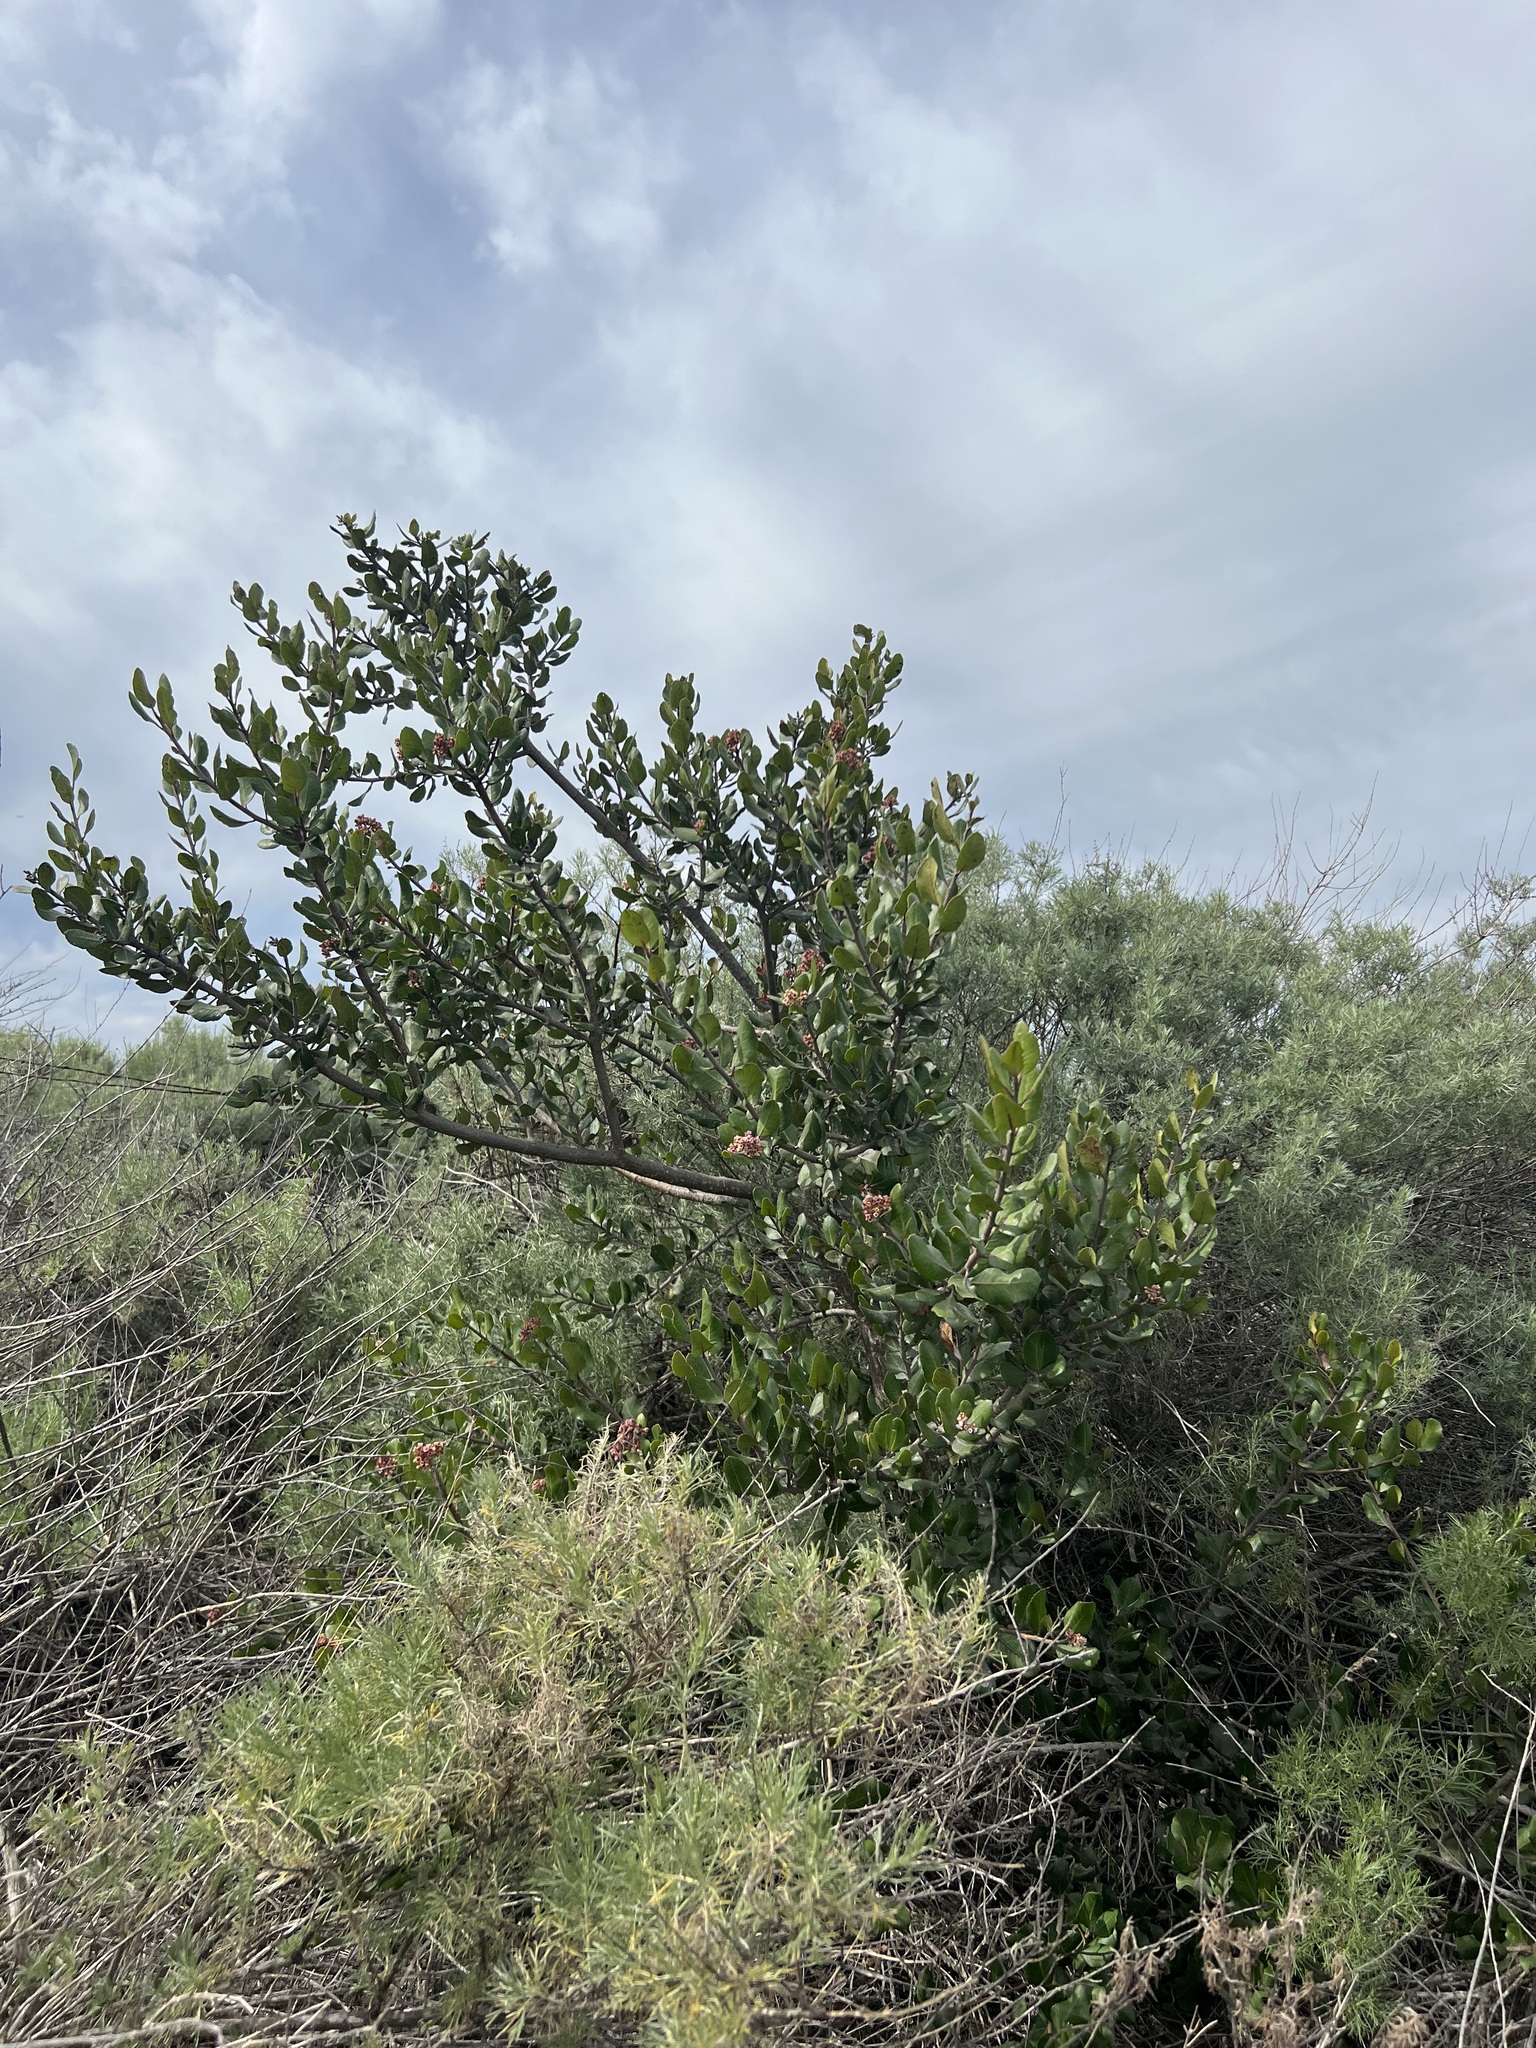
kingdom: Plantae
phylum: Tracheophyta
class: Magnoliopsida
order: Sapindales
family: Anacardiaceae
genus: Rhus
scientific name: Rhus integrifolia
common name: Lemonade sumac
